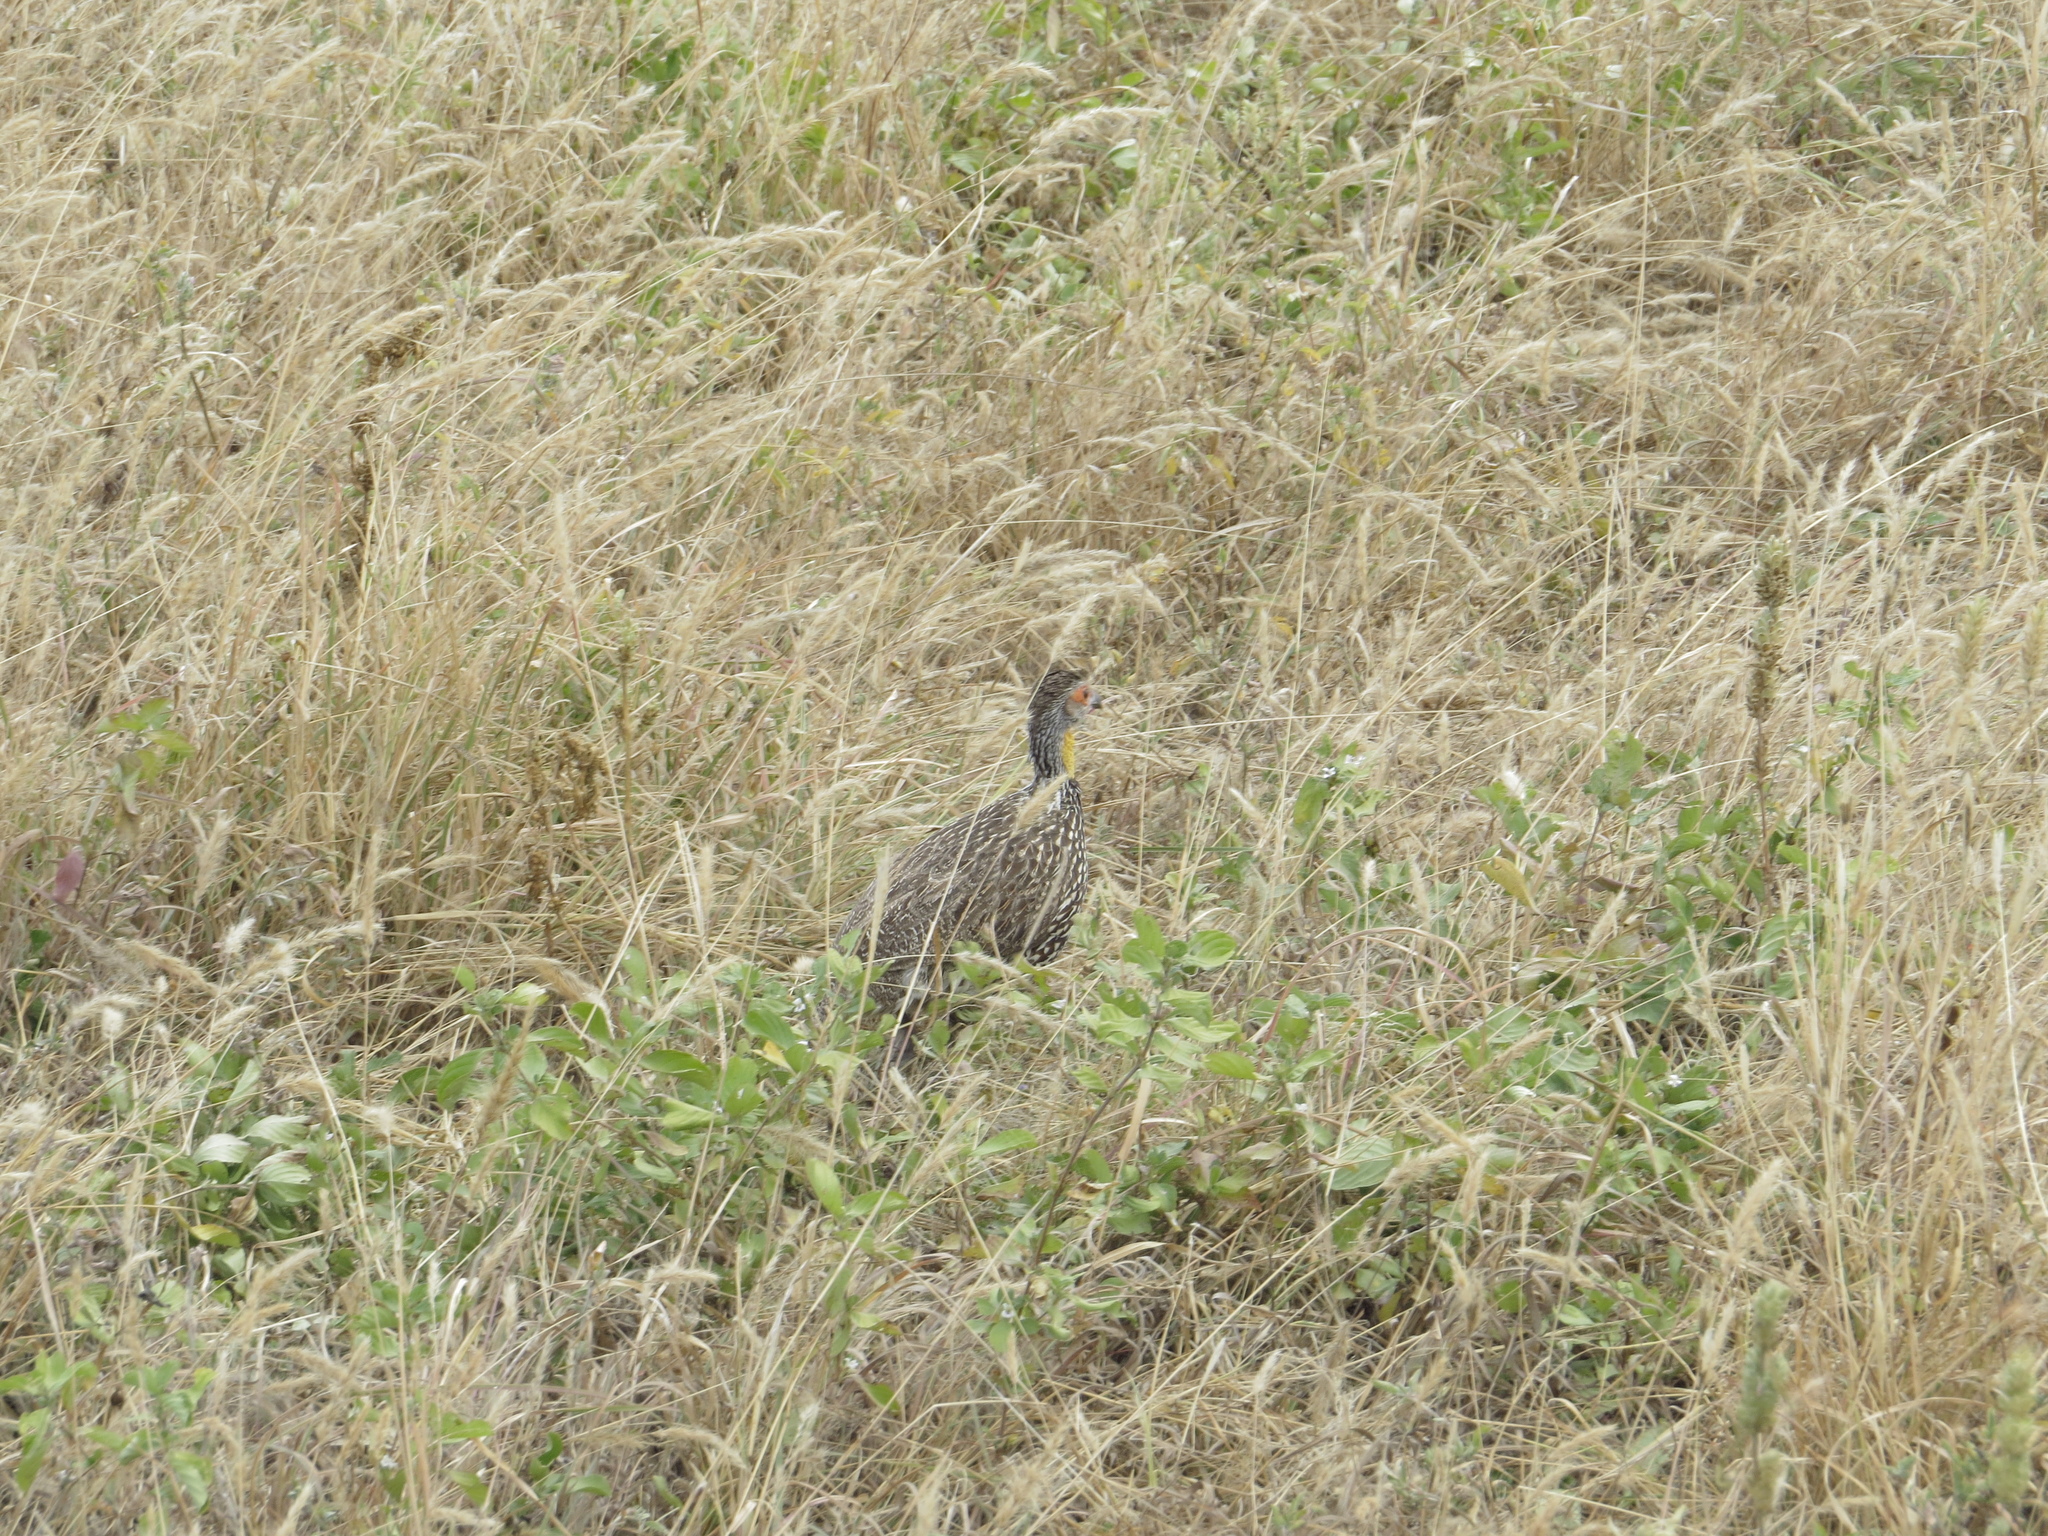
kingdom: Animalia
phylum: Chordata
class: Aves
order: Galliformes
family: Phasianidae
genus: Pternistis
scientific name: Pternistis leucoscepus
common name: Yellow-necked spurfowl
